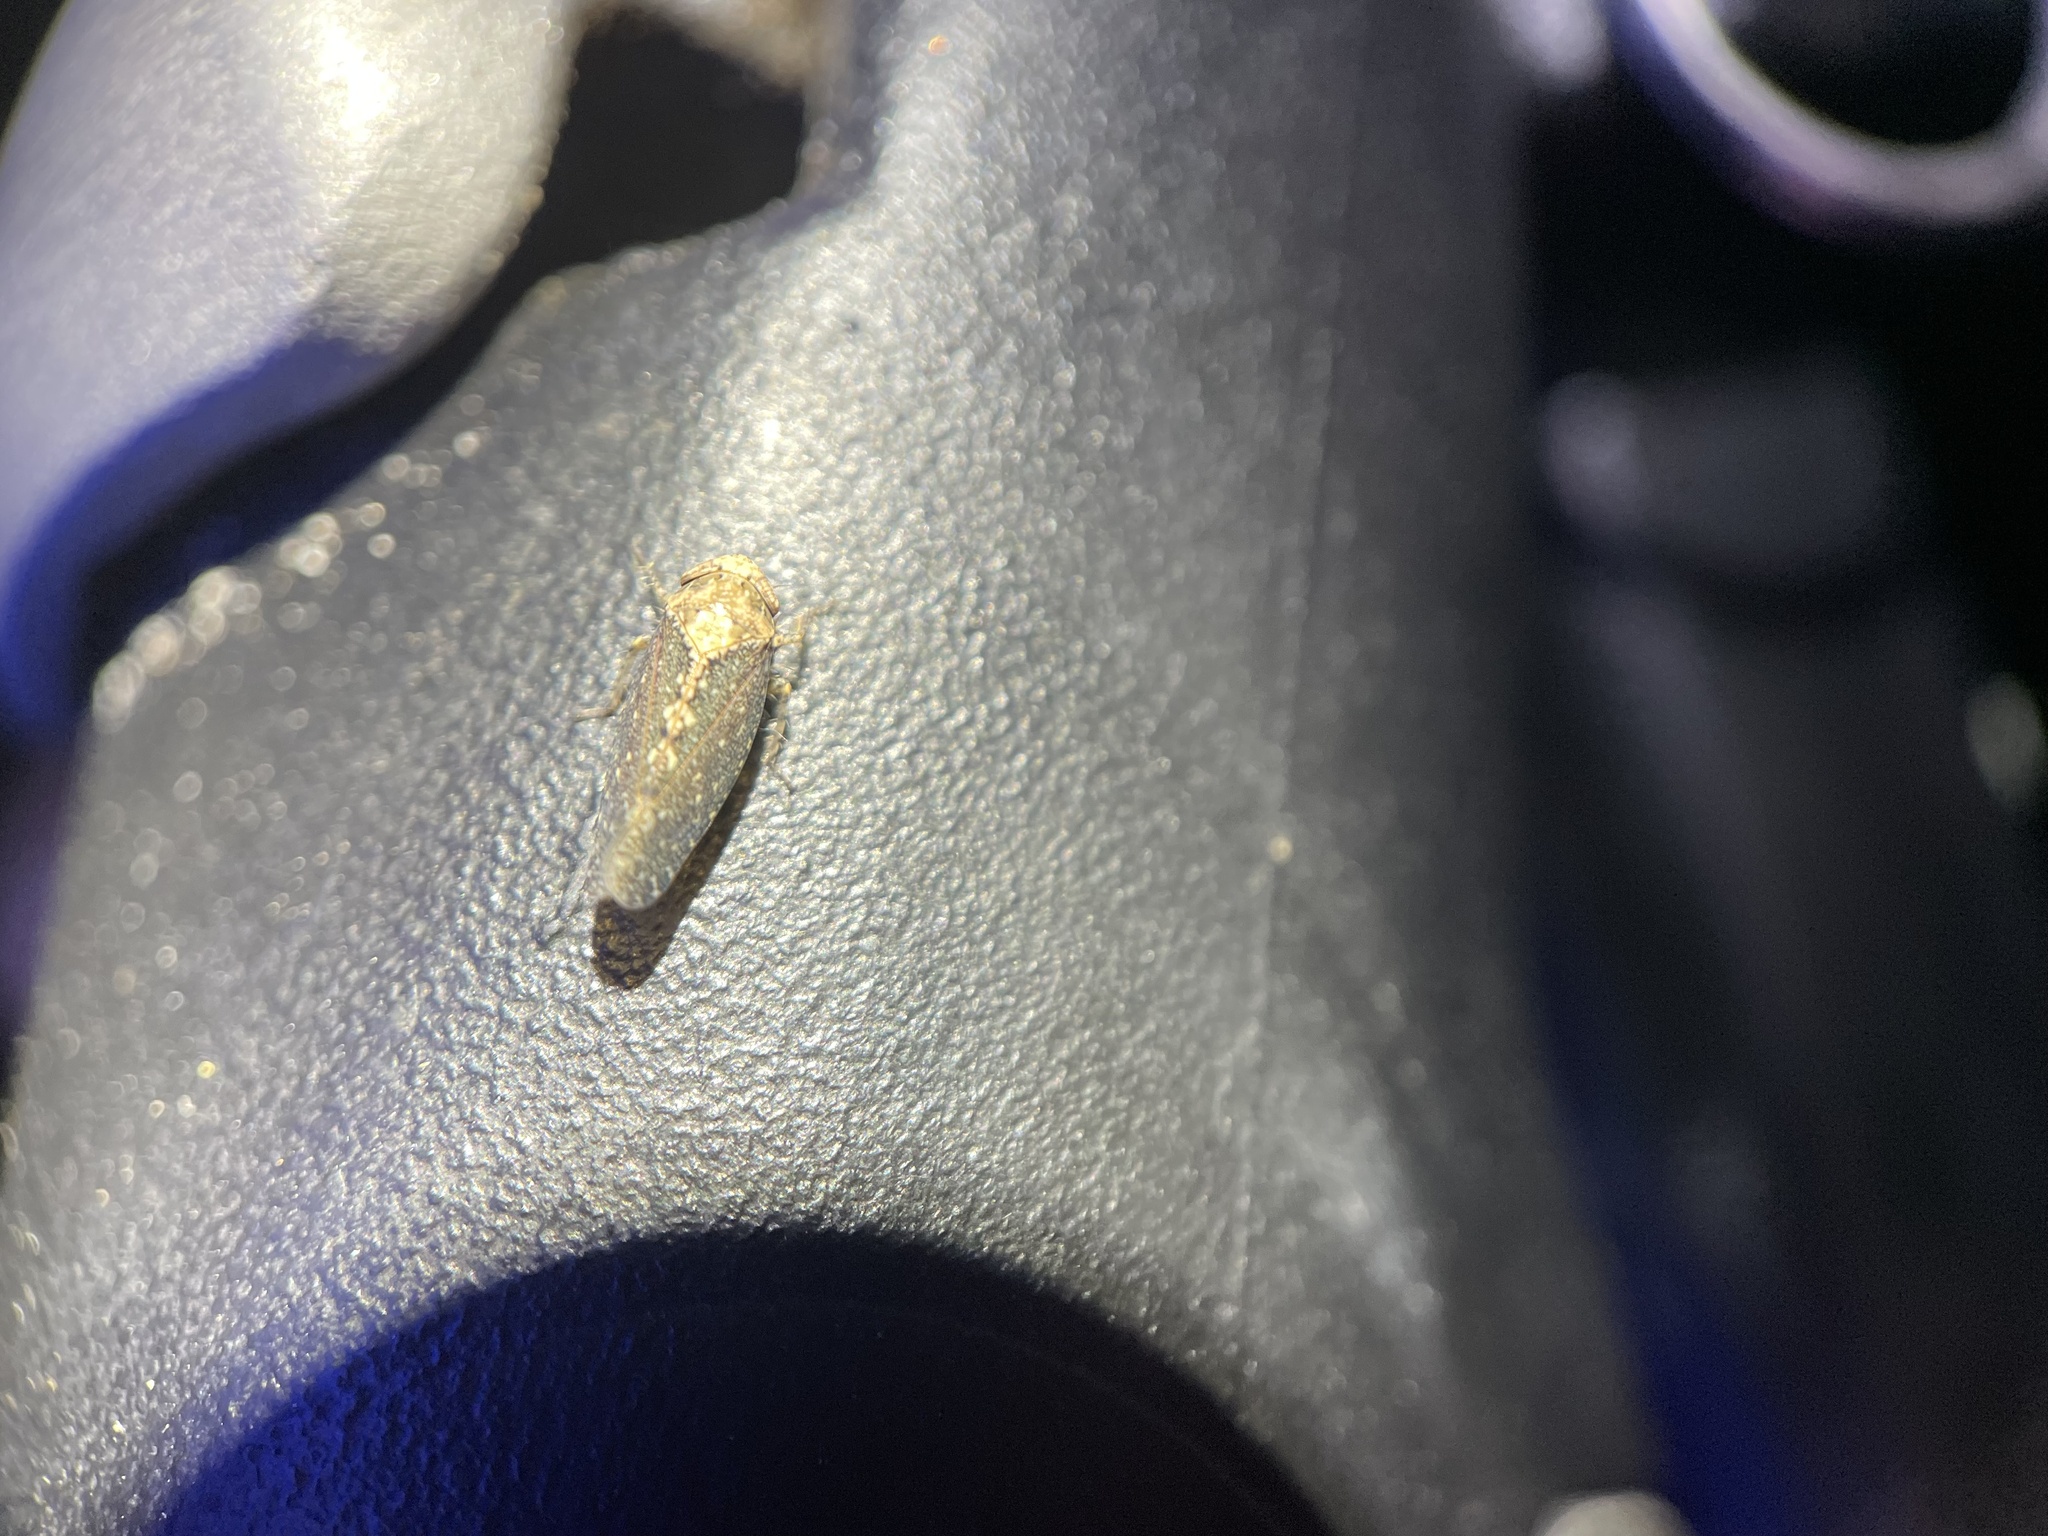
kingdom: Animalia
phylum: Arthropoda
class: Insecta
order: Hemiptera
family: Cicadellidae
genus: Excultanus
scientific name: Excultanus excultus
